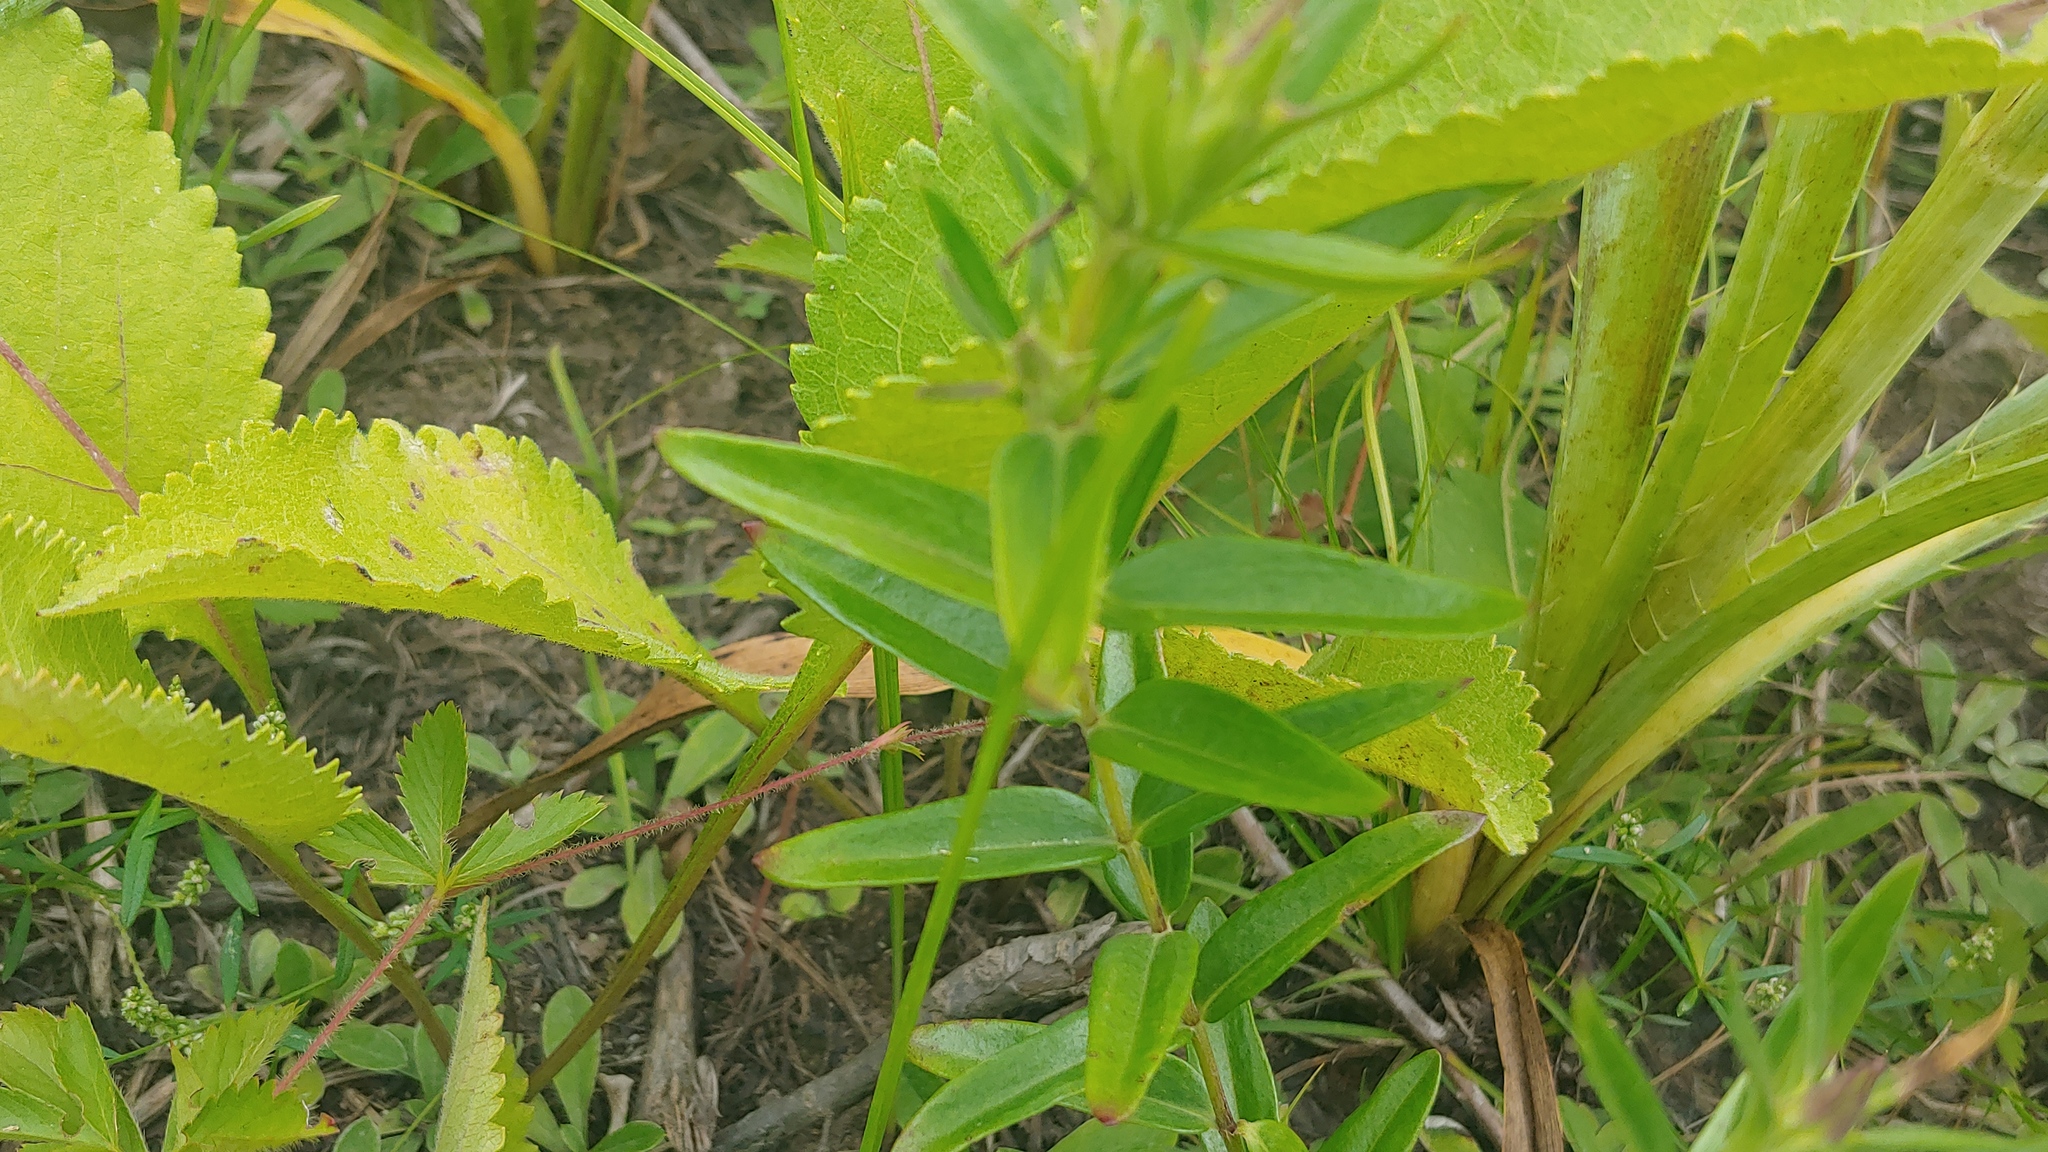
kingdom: Plantae
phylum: Tracheophyta
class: Magnoliopsida
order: Gentianales
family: Gentianaceae
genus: Gentiana
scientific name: Gentiana puberulenta
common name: Downy gentian
